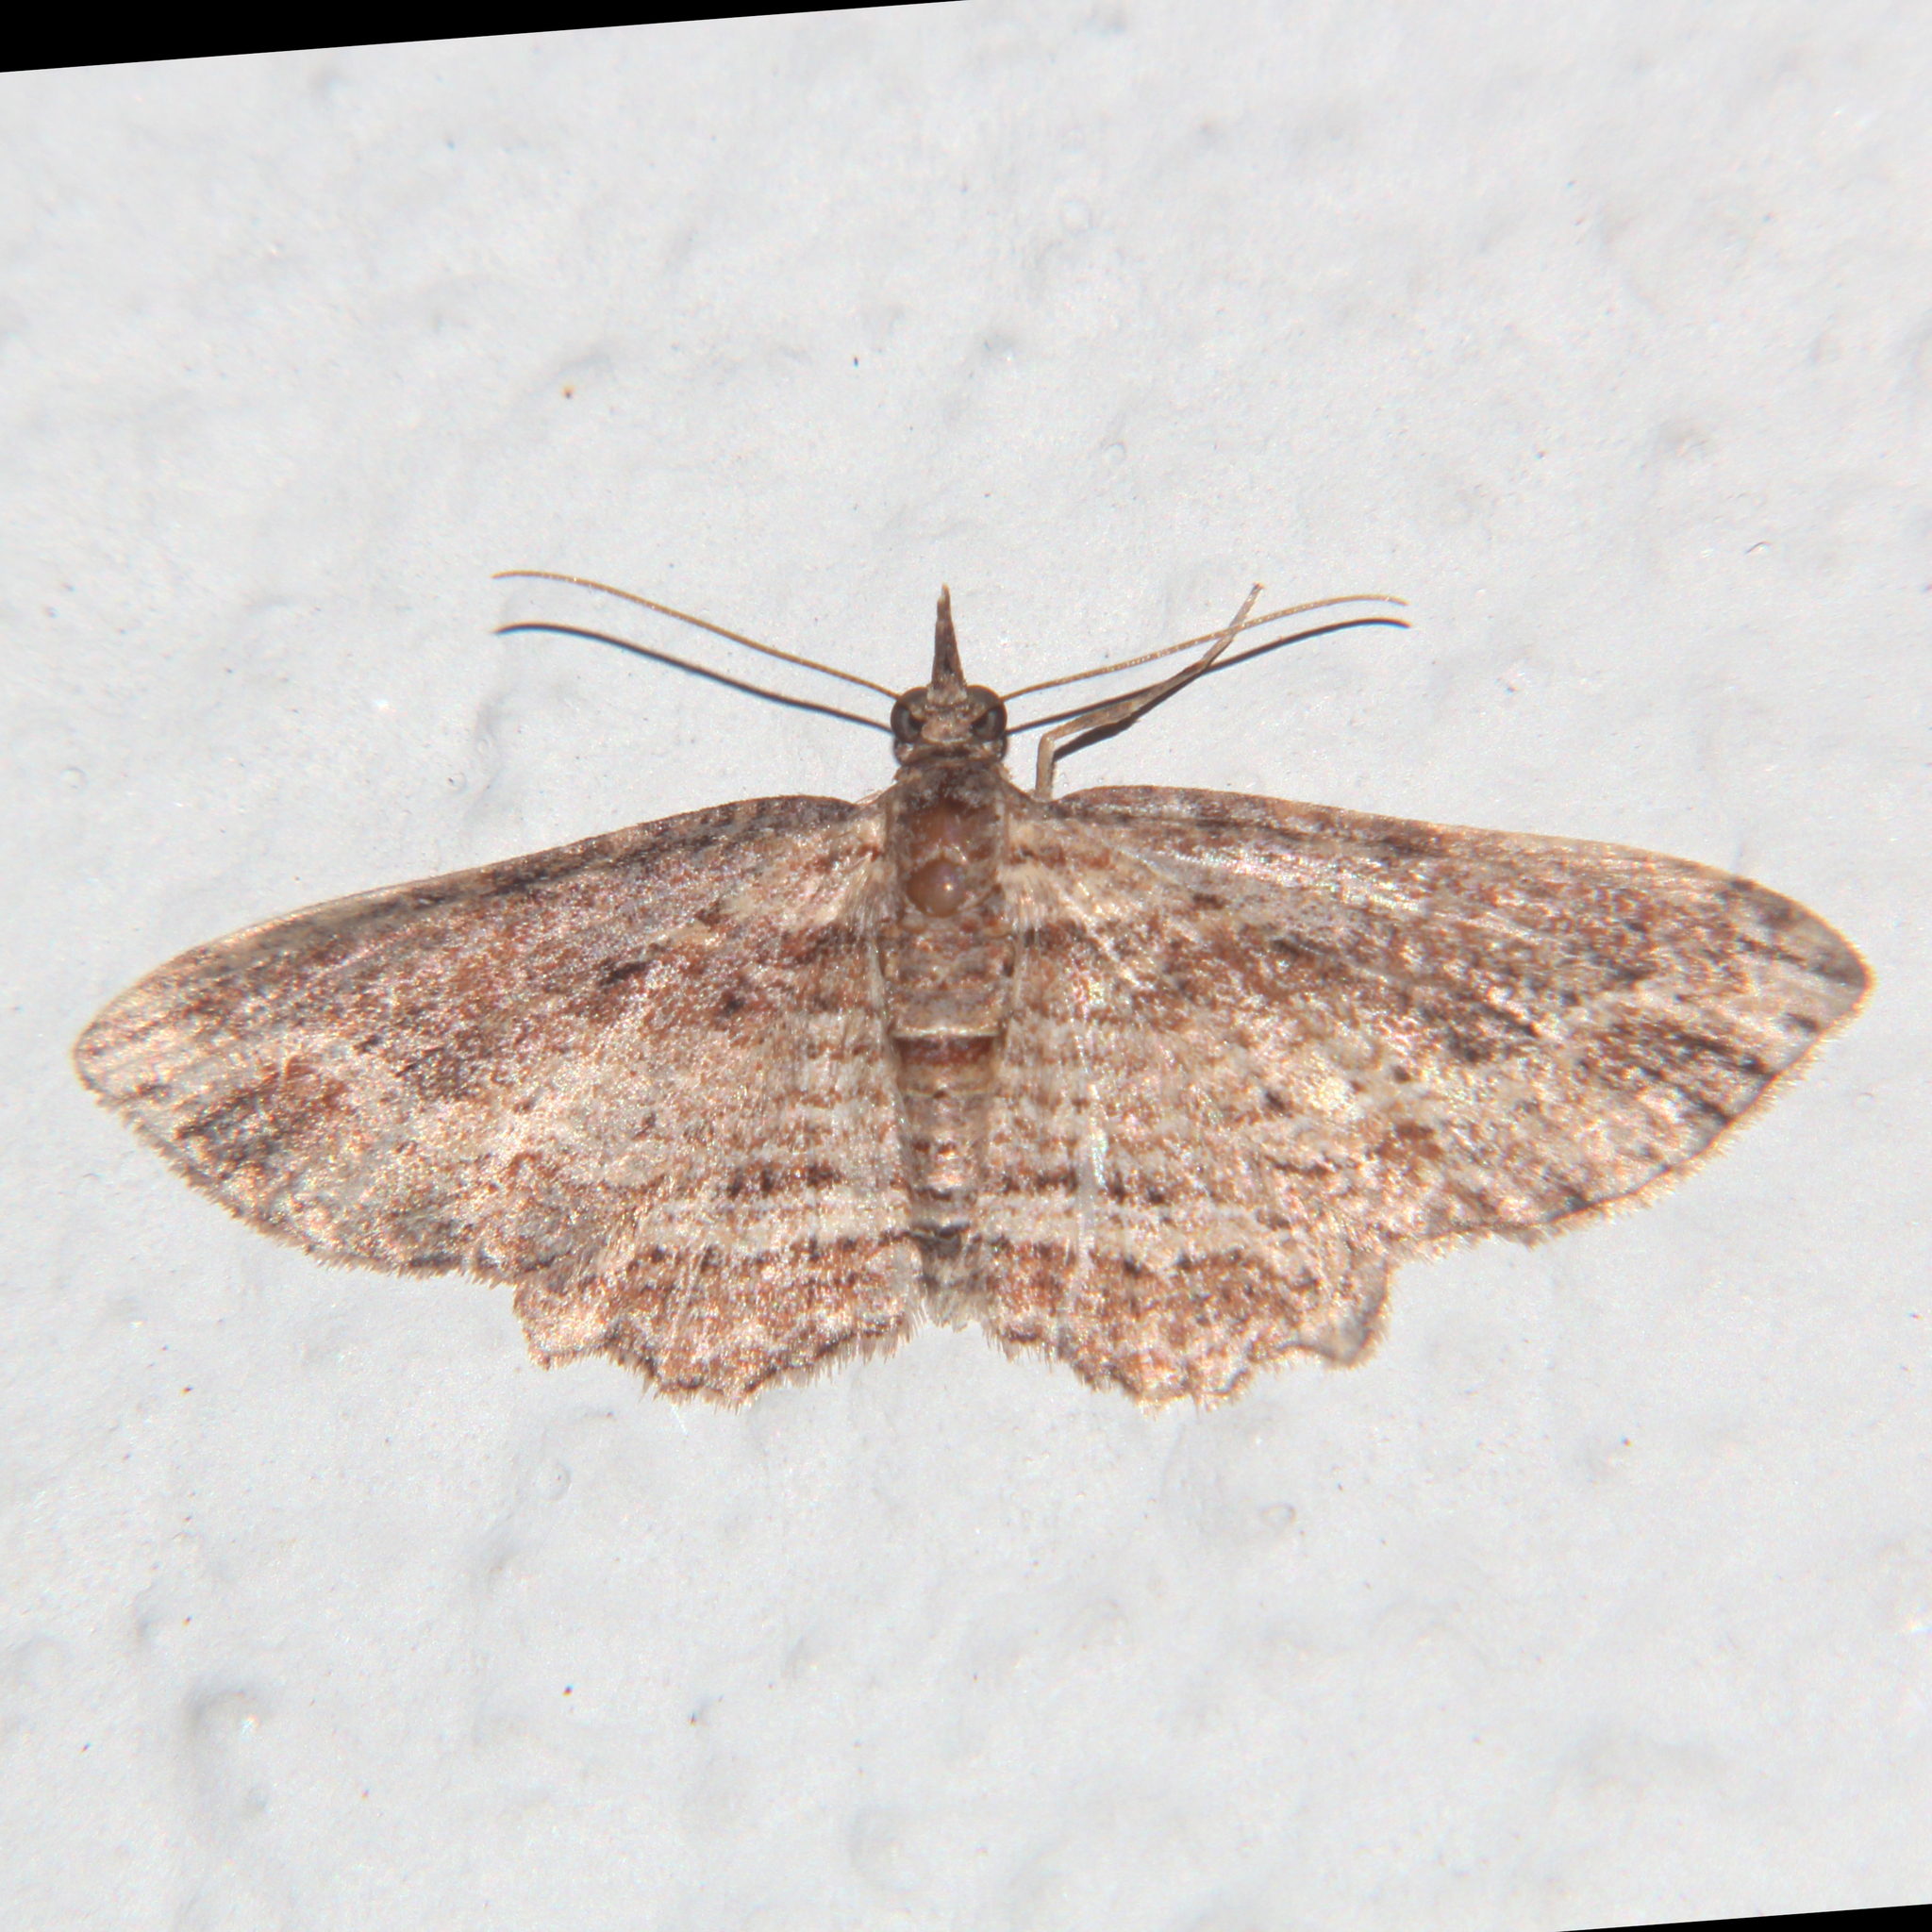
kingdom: Animalia
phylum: Arthropoda
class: Insecta
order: Lepidoptera
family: Geometridae
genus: Chloroclystis
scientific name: Chloroclystis filata
